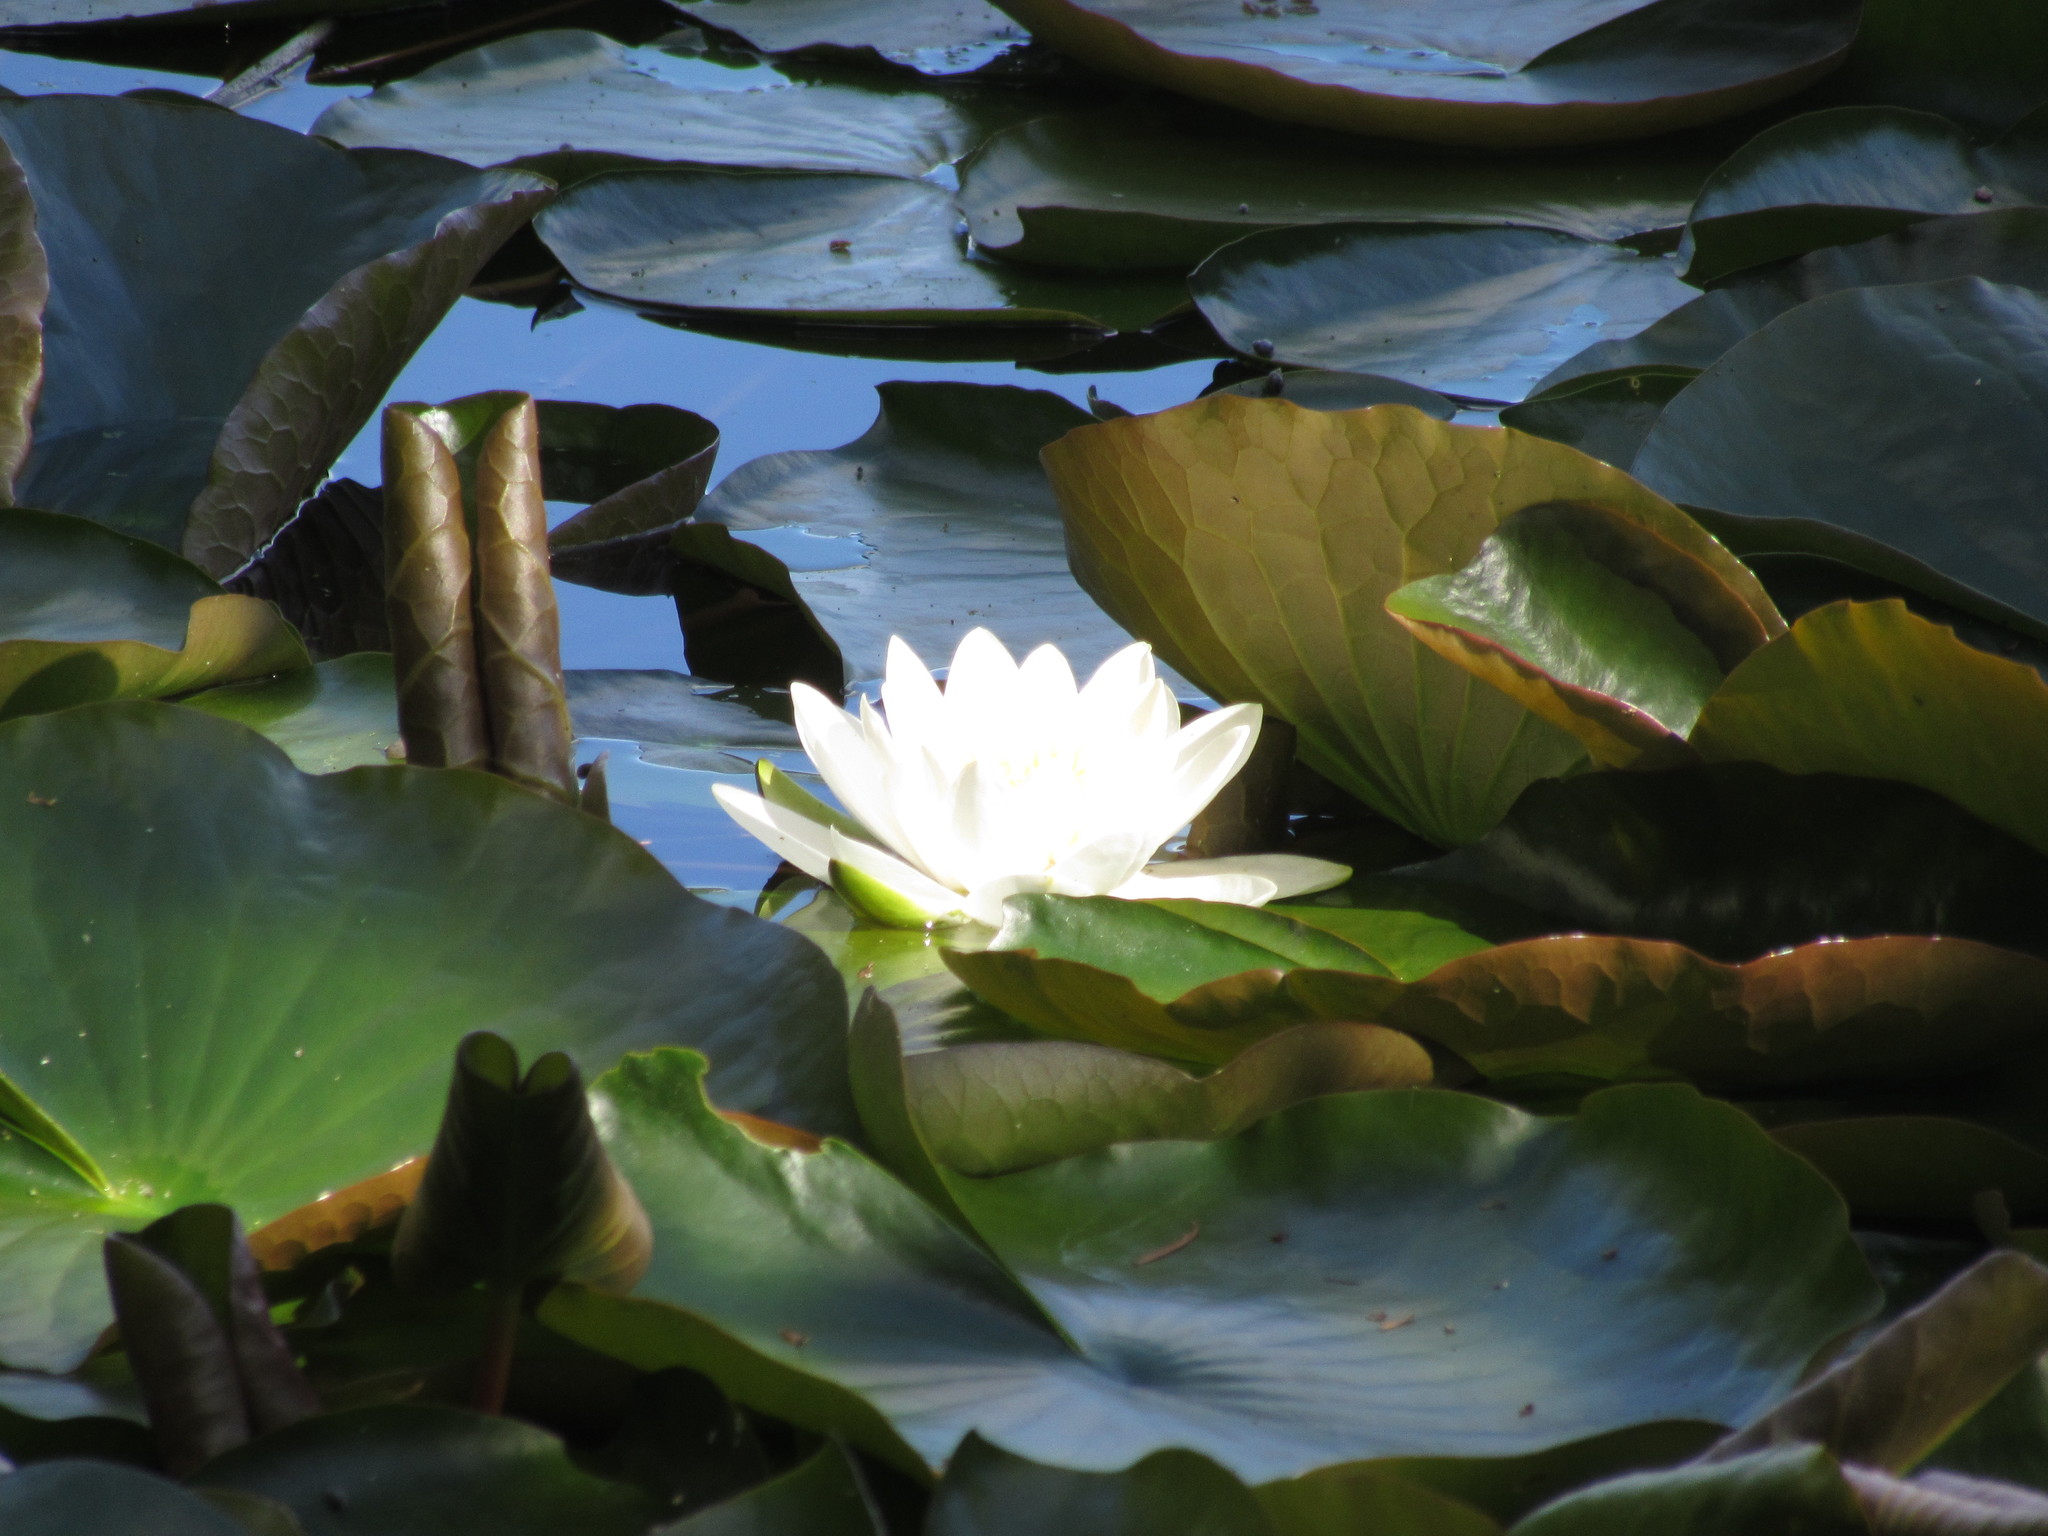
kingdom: Plantae
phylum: Tracheophyta
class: Magnoliopsida
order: Nymphaeales
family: Nymphaeaceae
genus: Nymphaea
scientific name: Nymphaea odorata
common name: Fragrant water-lily
